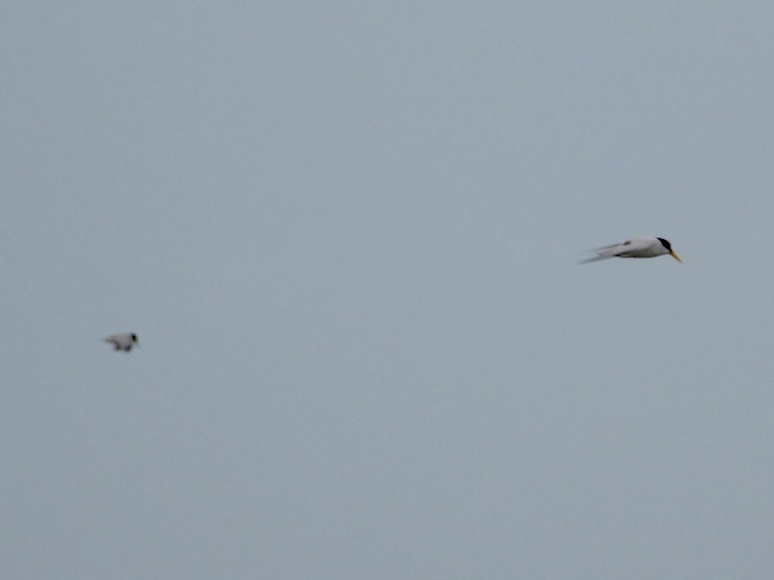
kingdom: Animalia
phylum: Chordata
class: Aves
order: Charadriiformes
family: Laridae
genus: Sternula
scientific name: Sternula antillarum
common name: Least tern
